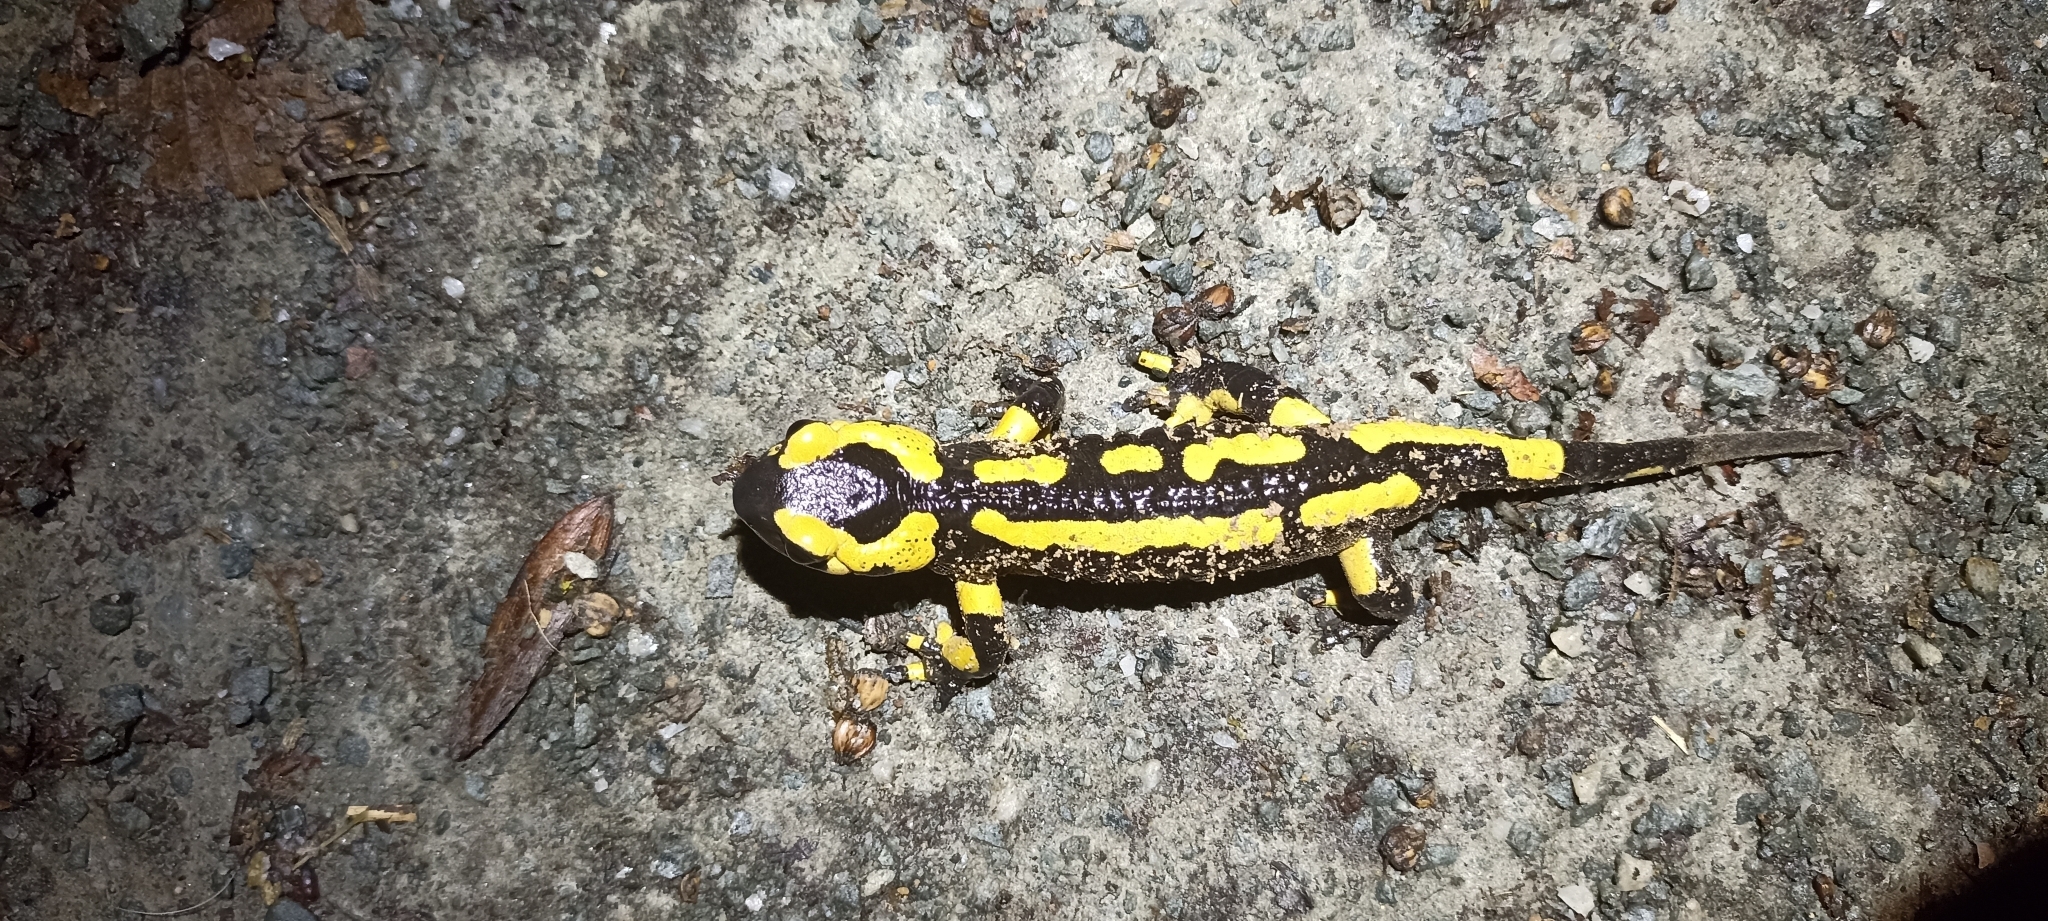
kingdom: Animalia
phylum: Chordata
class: Amphibia
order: Caudata
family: Salamandridae
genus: Salamandra
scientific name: Salamandra salamandra
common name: Fire salamander
